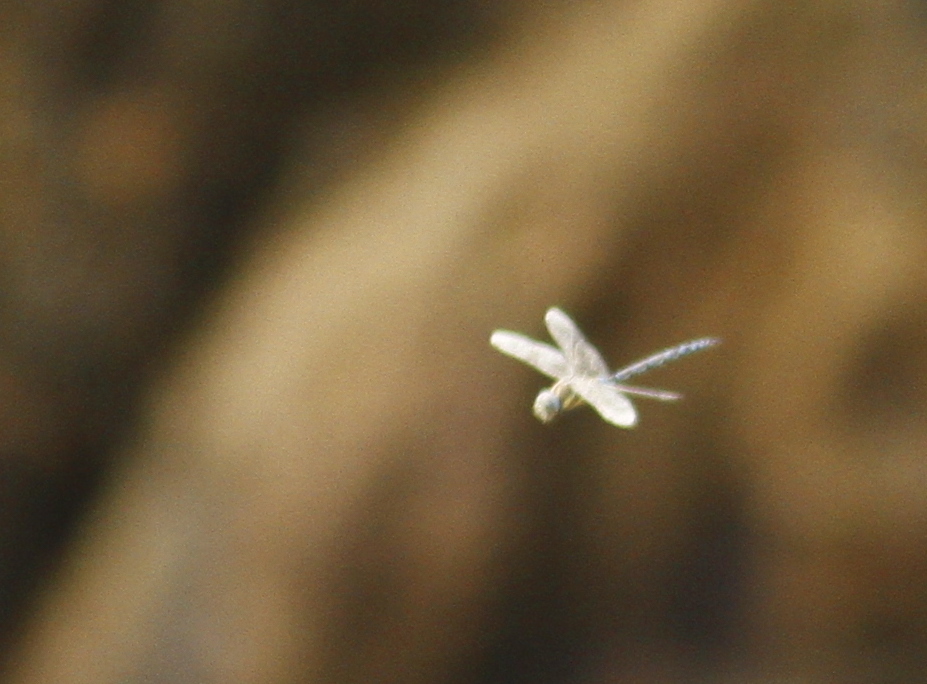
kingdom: Animalia
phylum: Arthropoda
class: Insecta
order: Odonata
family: Aeshnidae
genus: Aeshna
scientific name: Aeshna mixta
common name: Migrant hawker
